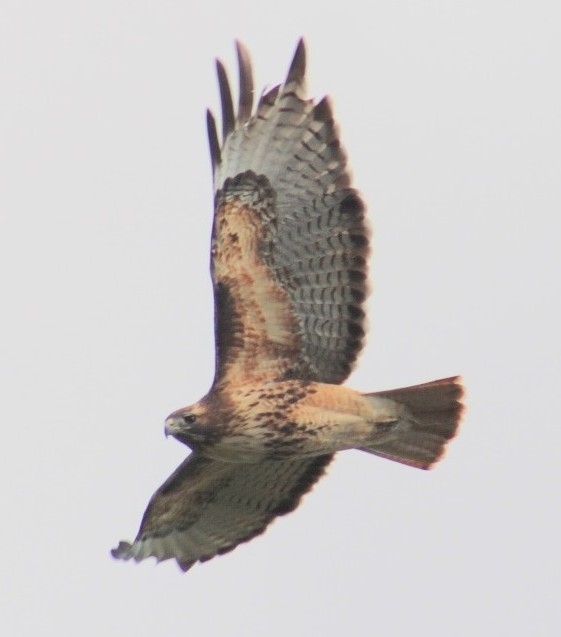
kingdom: Animalia
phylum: Chordata
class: Aves
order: Accipitriformes
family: Accipitridae
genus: Buteo
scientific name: Buteo jamaicensis
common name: Red-tailed hawk
